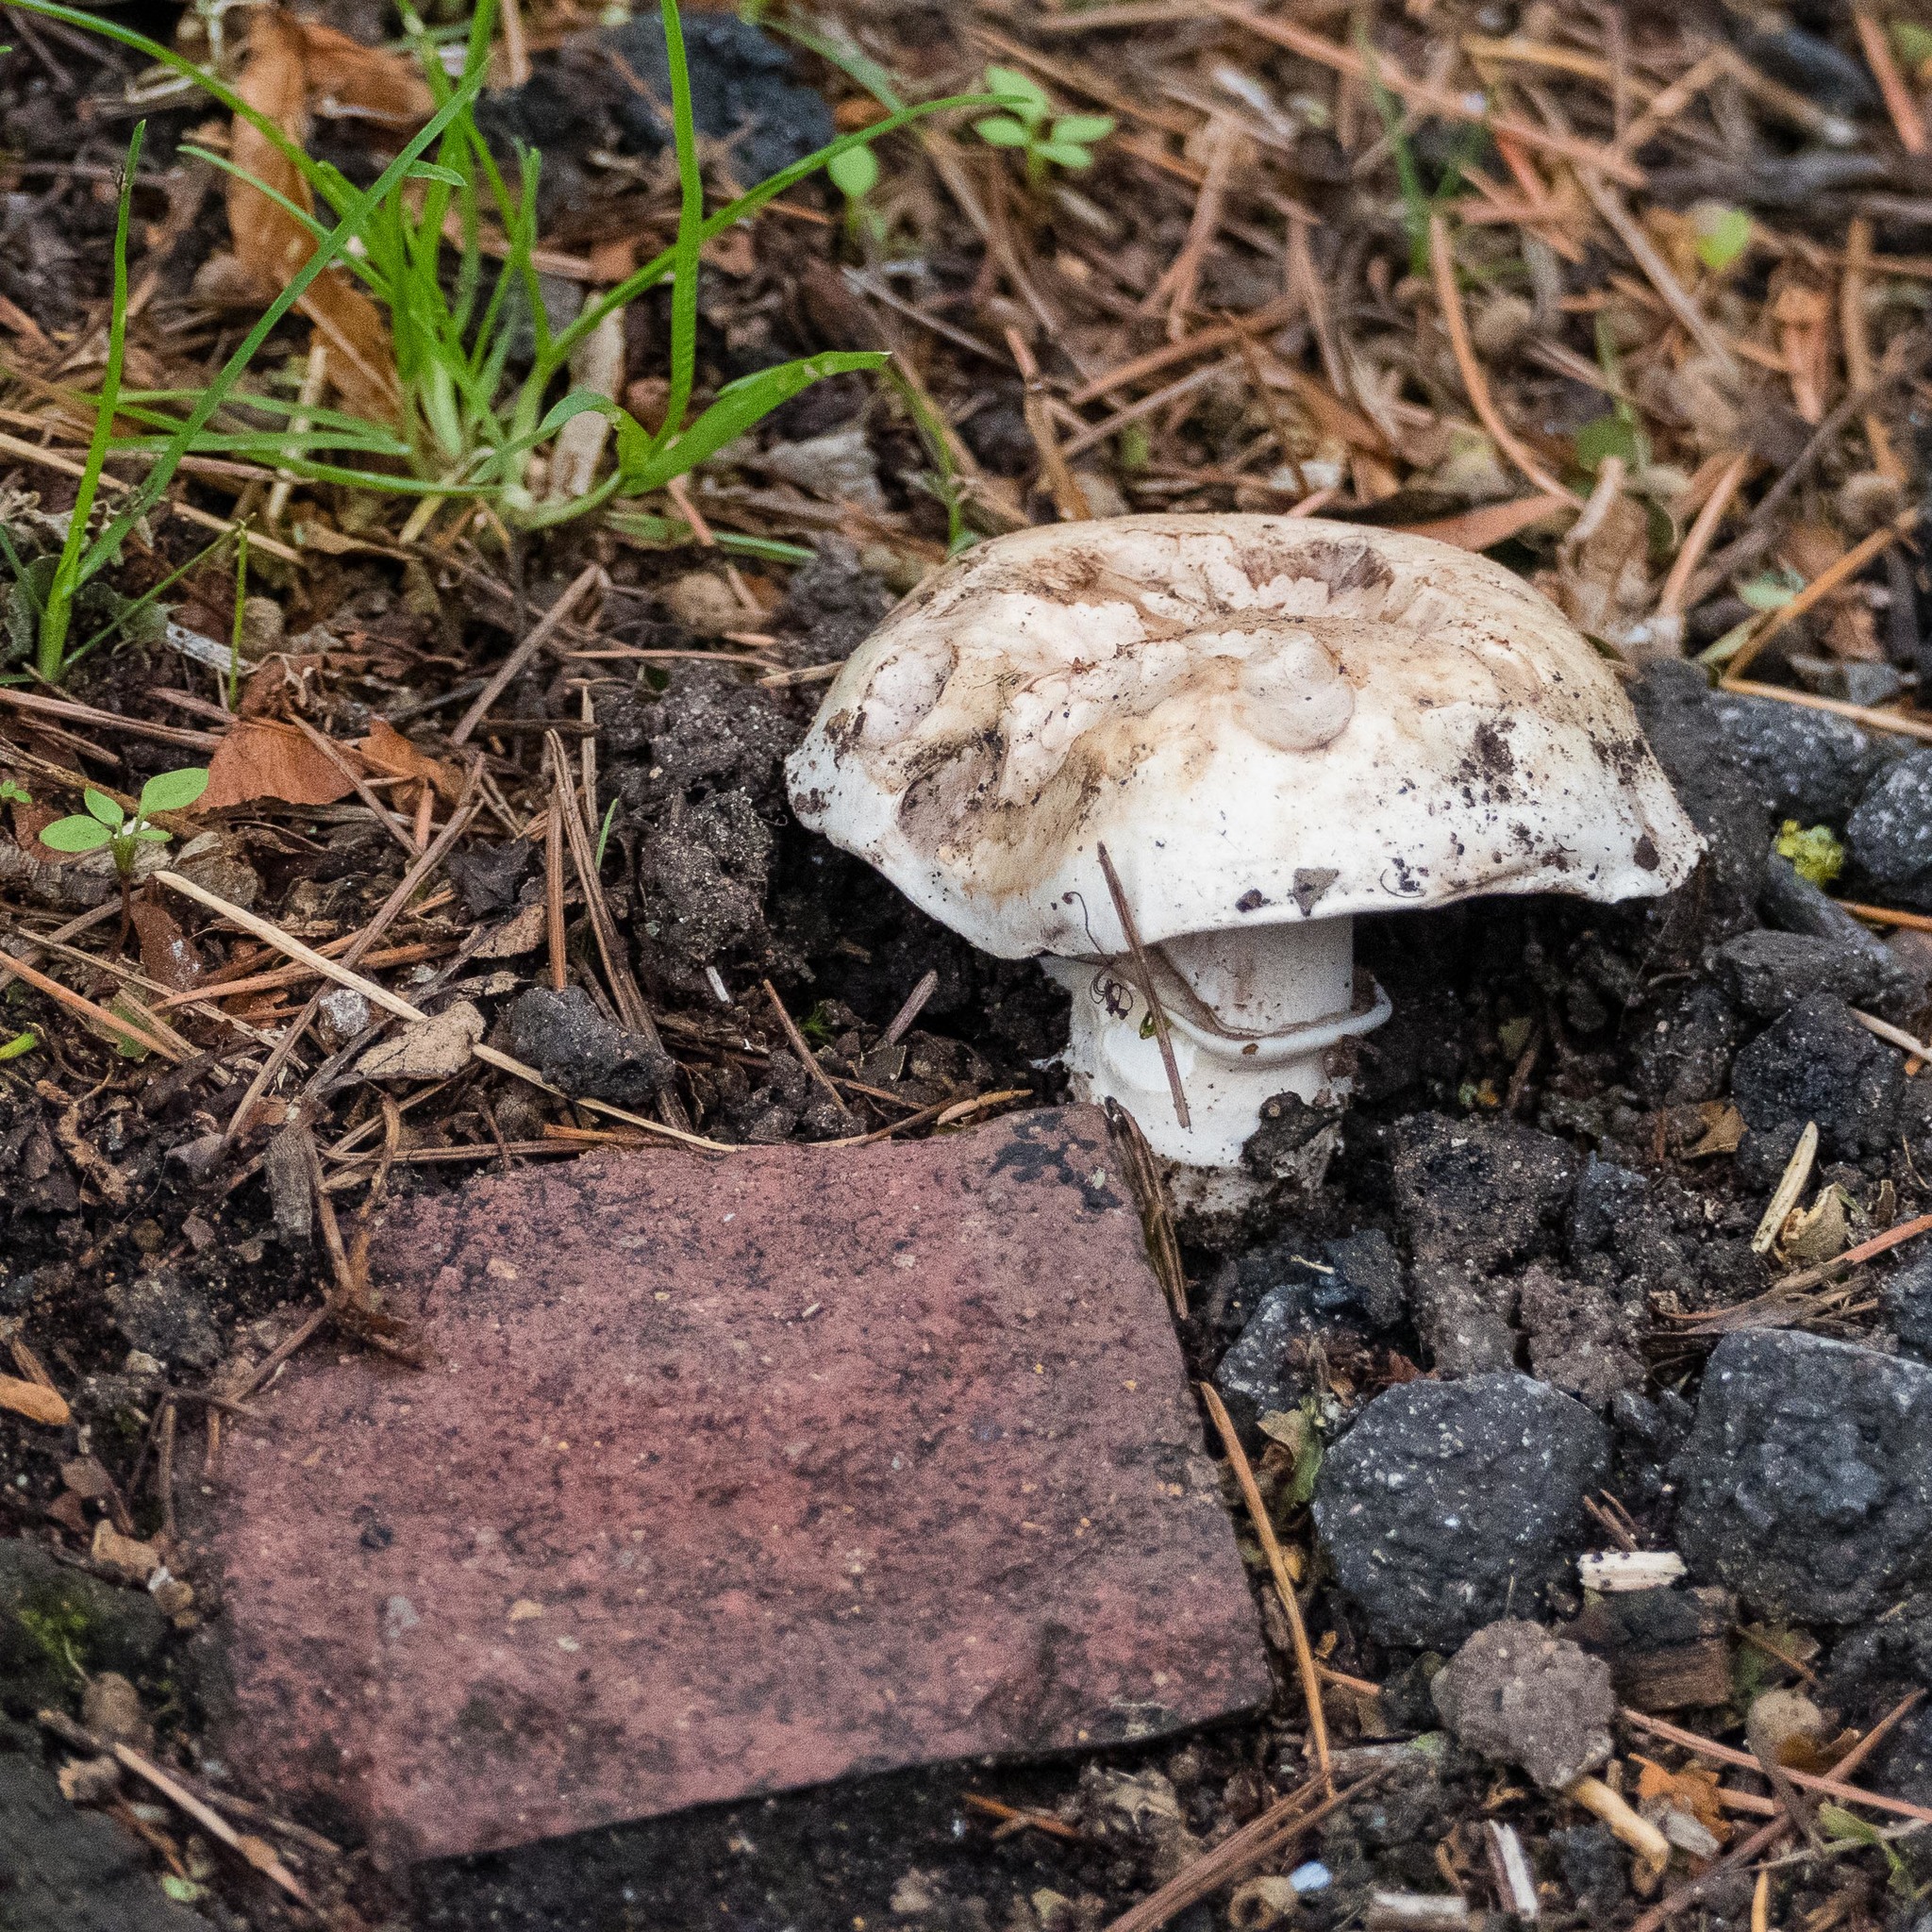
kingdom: Fungi
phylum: Basidiomycota
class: Agaricomycetes
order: Agaricales
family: Agaricaceae
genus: Agaricus
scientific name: Agaricus bitorquis
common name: Pavement mushroom
